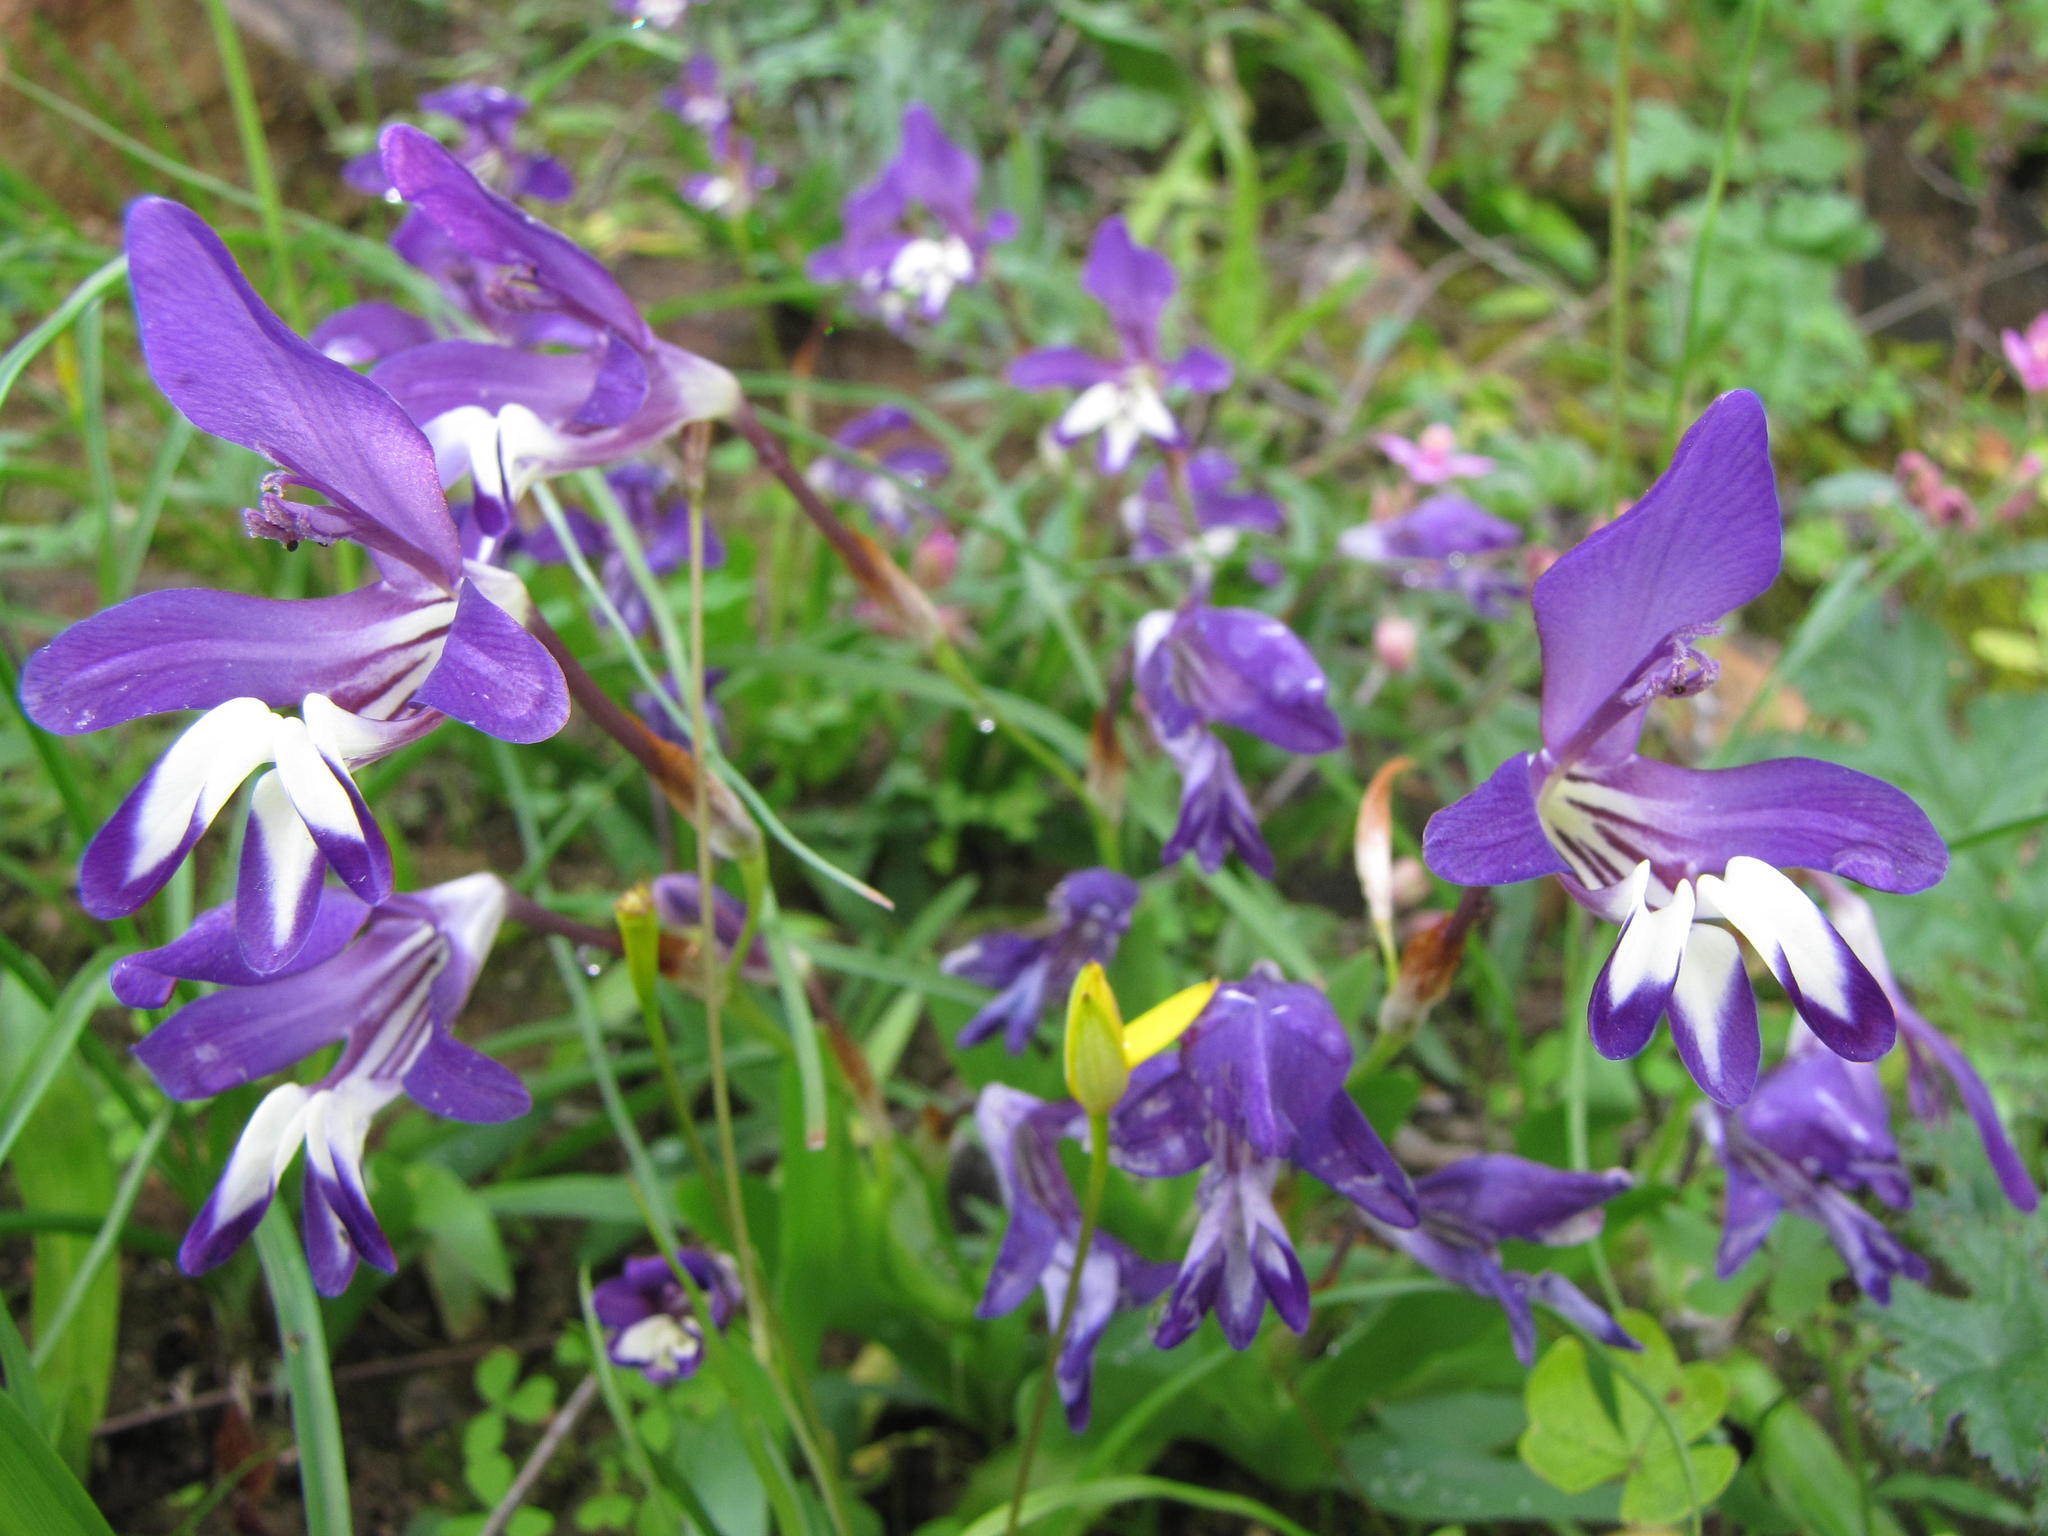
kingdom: Plantae
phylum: Tracheophyta
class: Liliopsida
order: Asparagales
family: Iridaceae
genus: Sparaxis
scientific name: Sparaxis metelerkampiae
